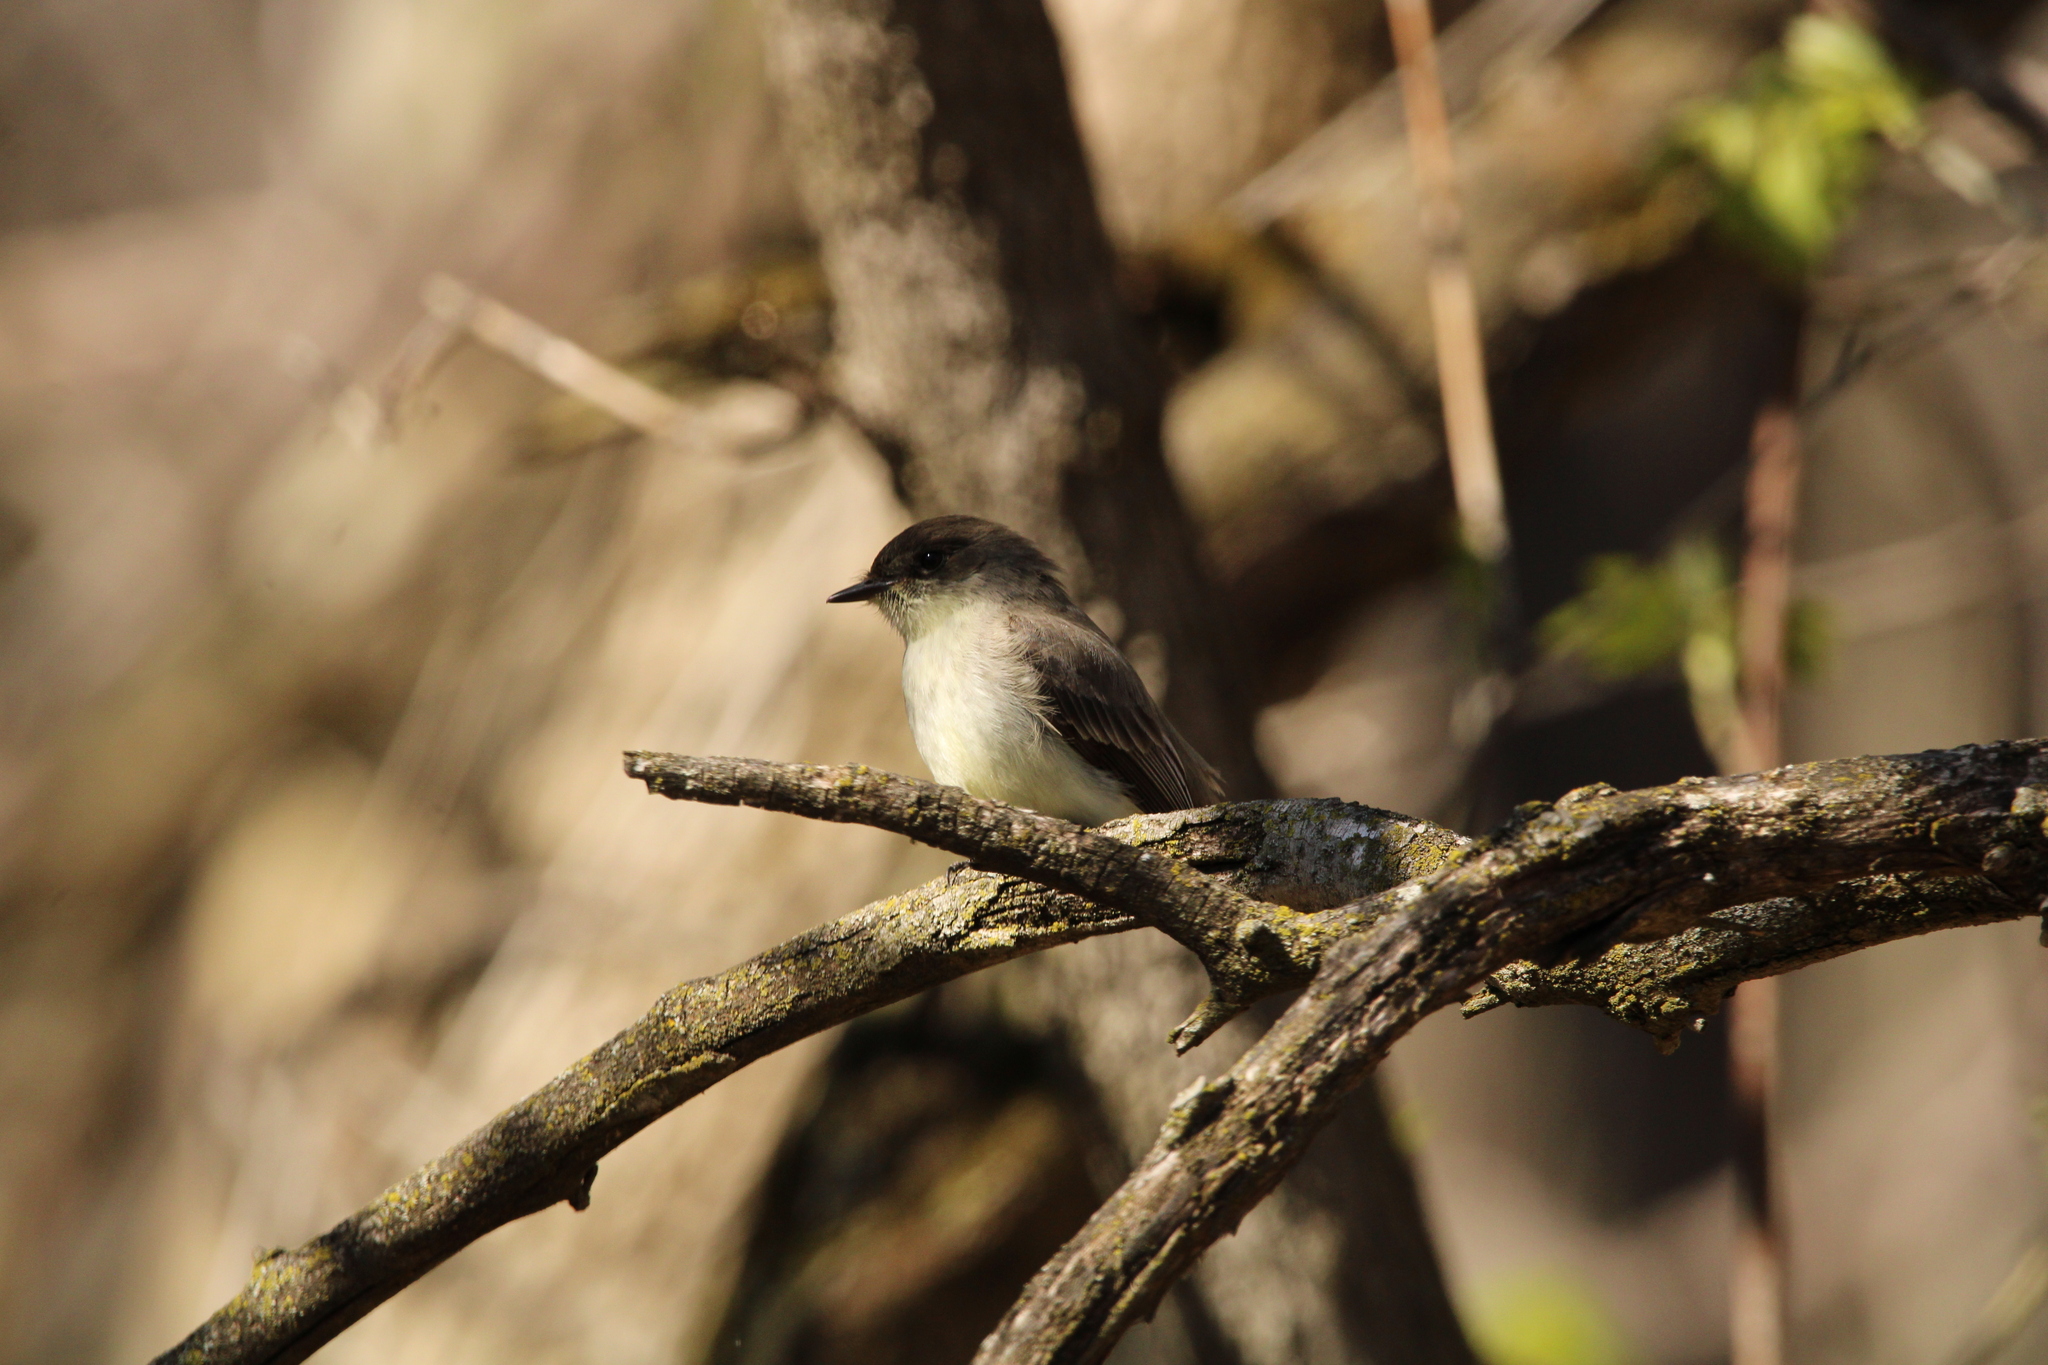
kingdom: Animalia
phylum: Chordata
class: Aves
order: Passeriformes
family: Tyrannidae
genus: Sayornis
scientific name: Sayornis phoebe
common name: Eastern phoebe
